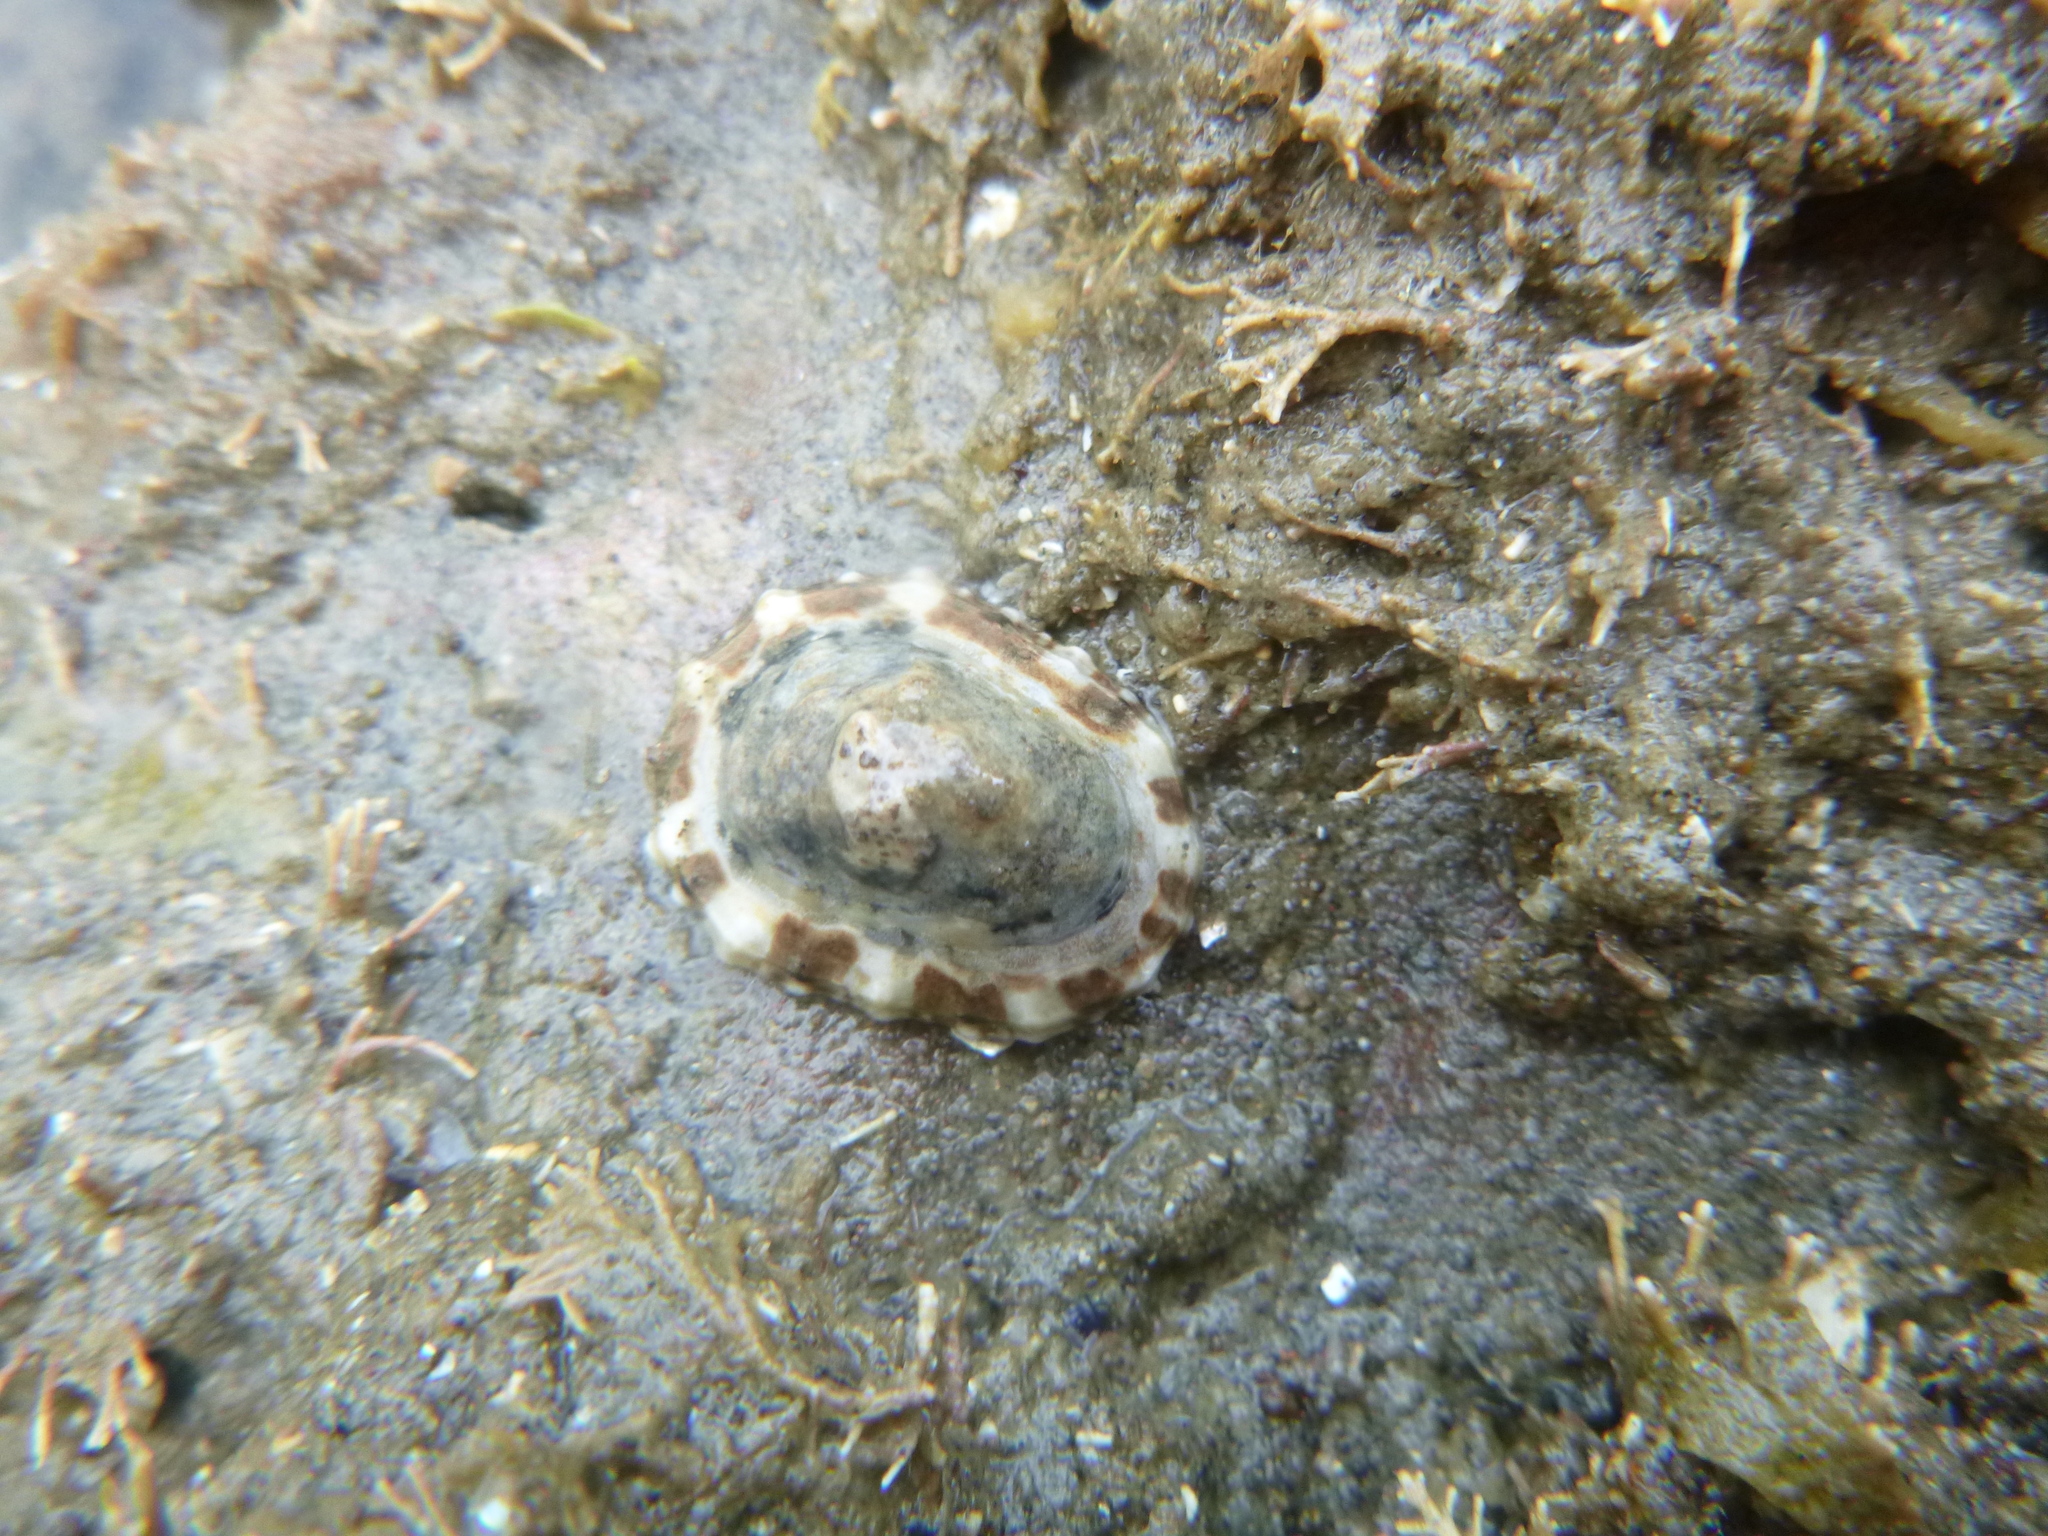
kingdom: Animalia
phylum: Mollusca
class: Gastropoda
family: Nacellidae
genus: Cellana
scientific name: Cellana ornata
